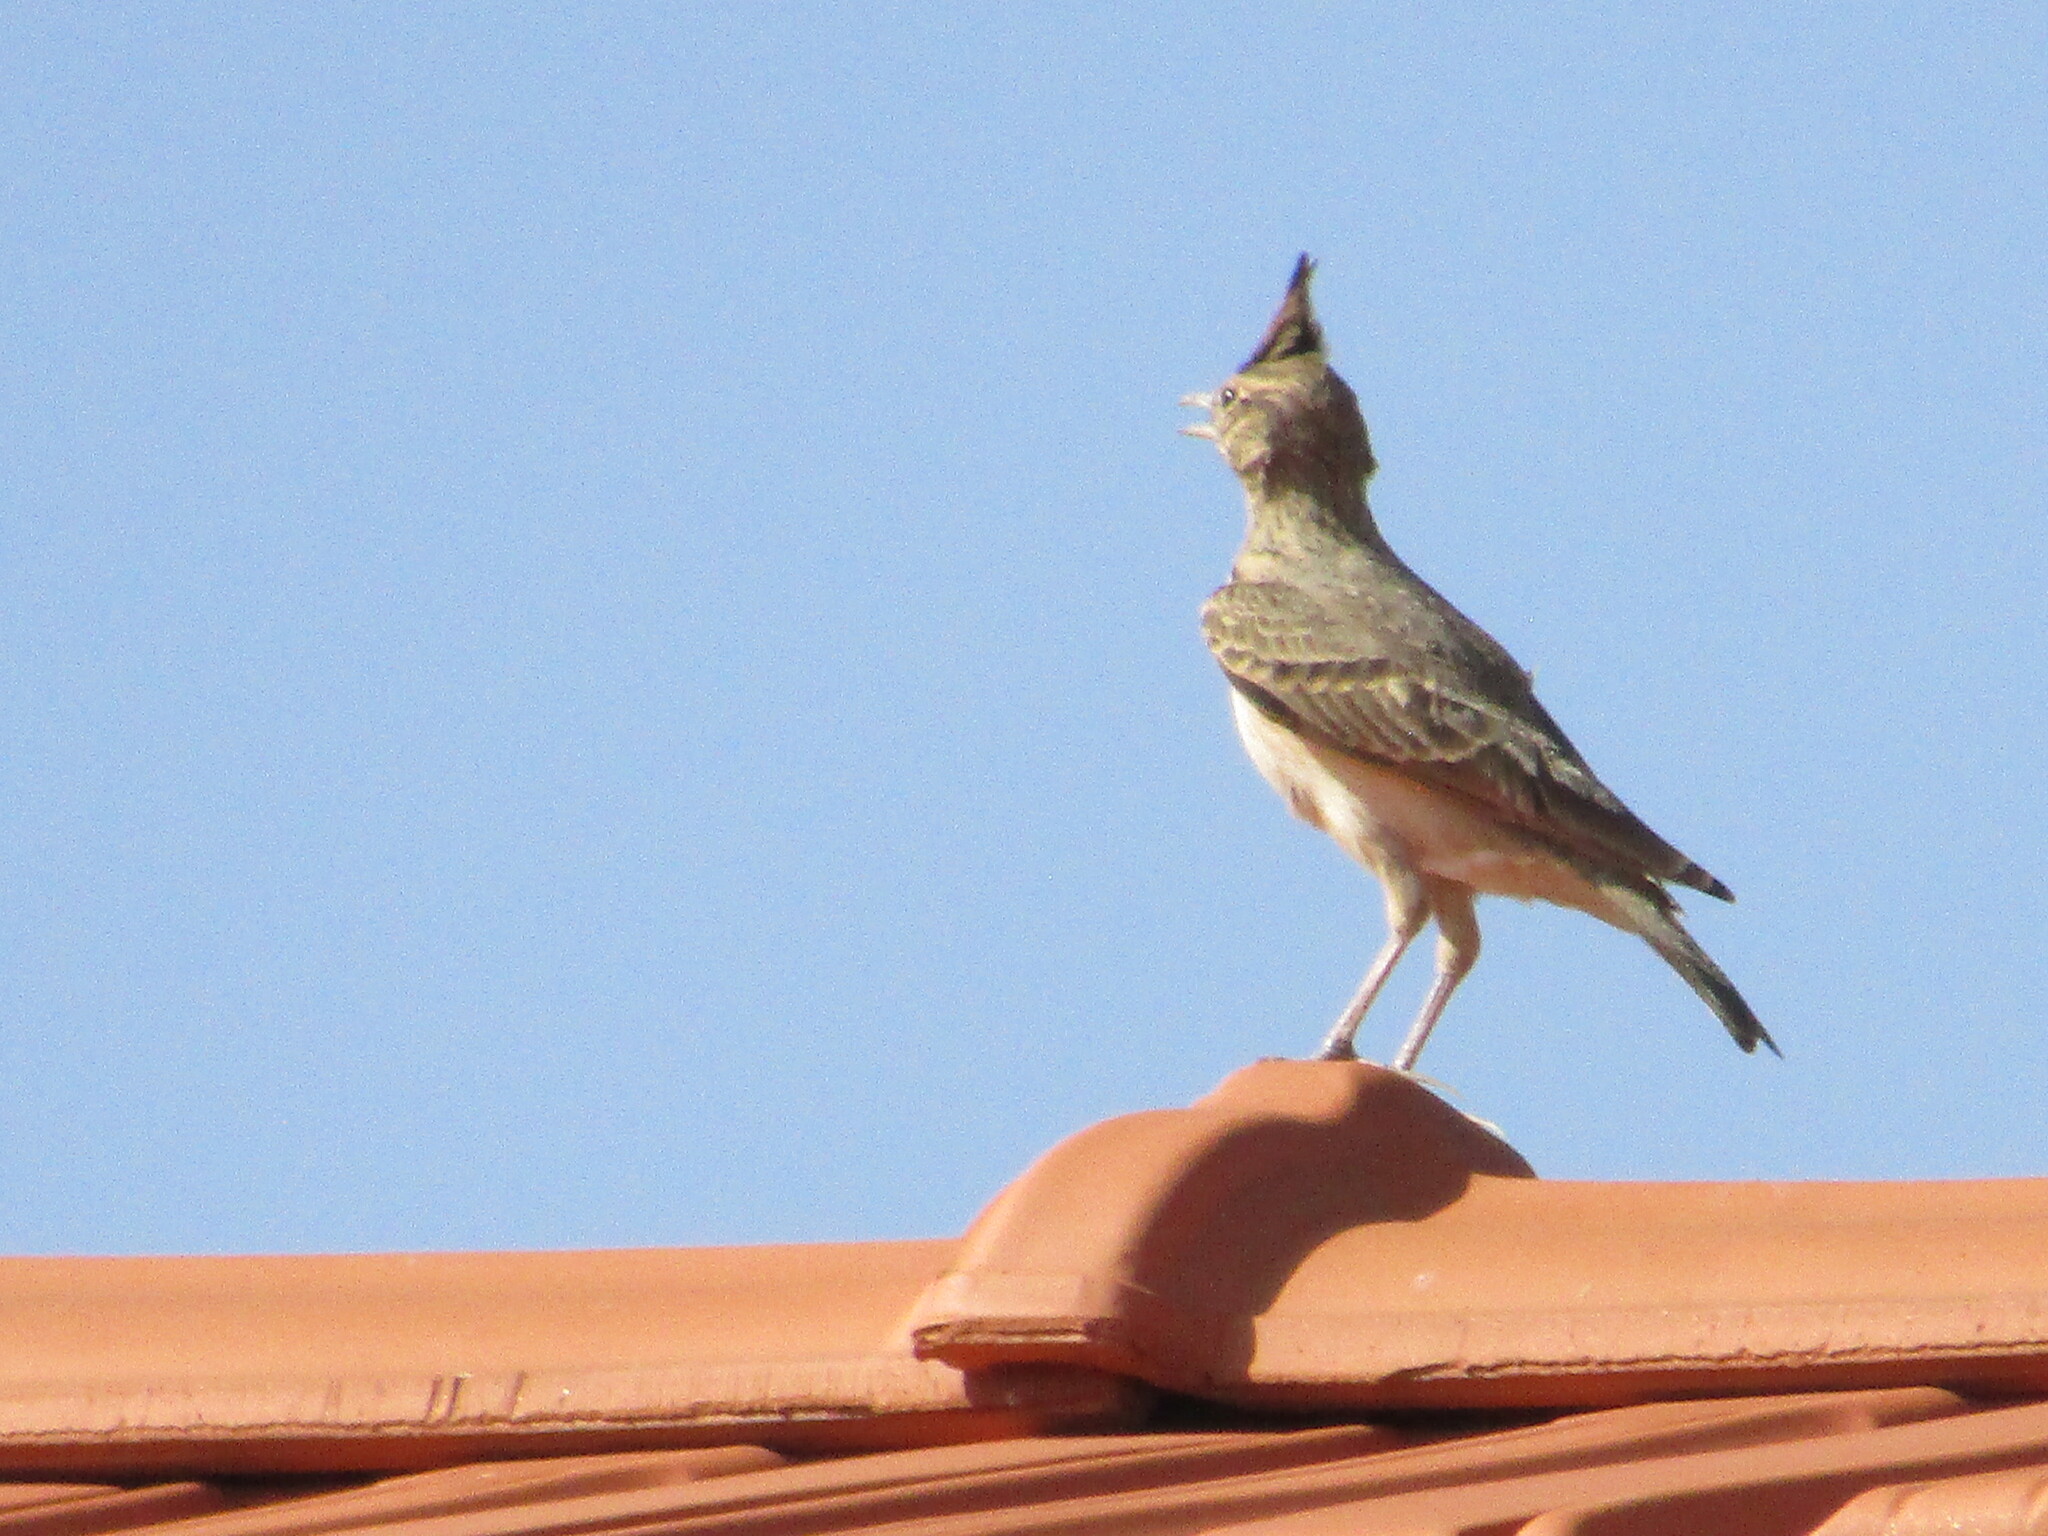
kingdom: Animalia
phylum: Chordata
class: Aves
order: Passeriformes
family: Alaudidae
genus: Galerida
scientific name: Galerida cristata
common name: Crested lark
